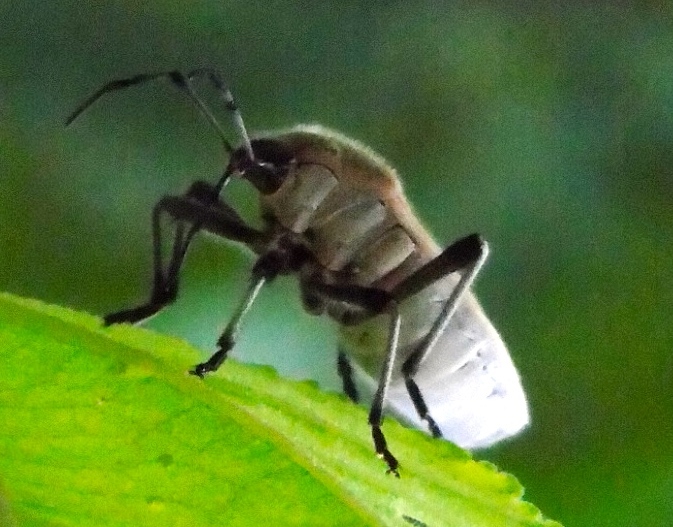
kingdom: Animalia
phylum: Arthropoda
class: Insecta
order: Hemiptera
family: Largidae
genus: Largus
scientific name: Largus
